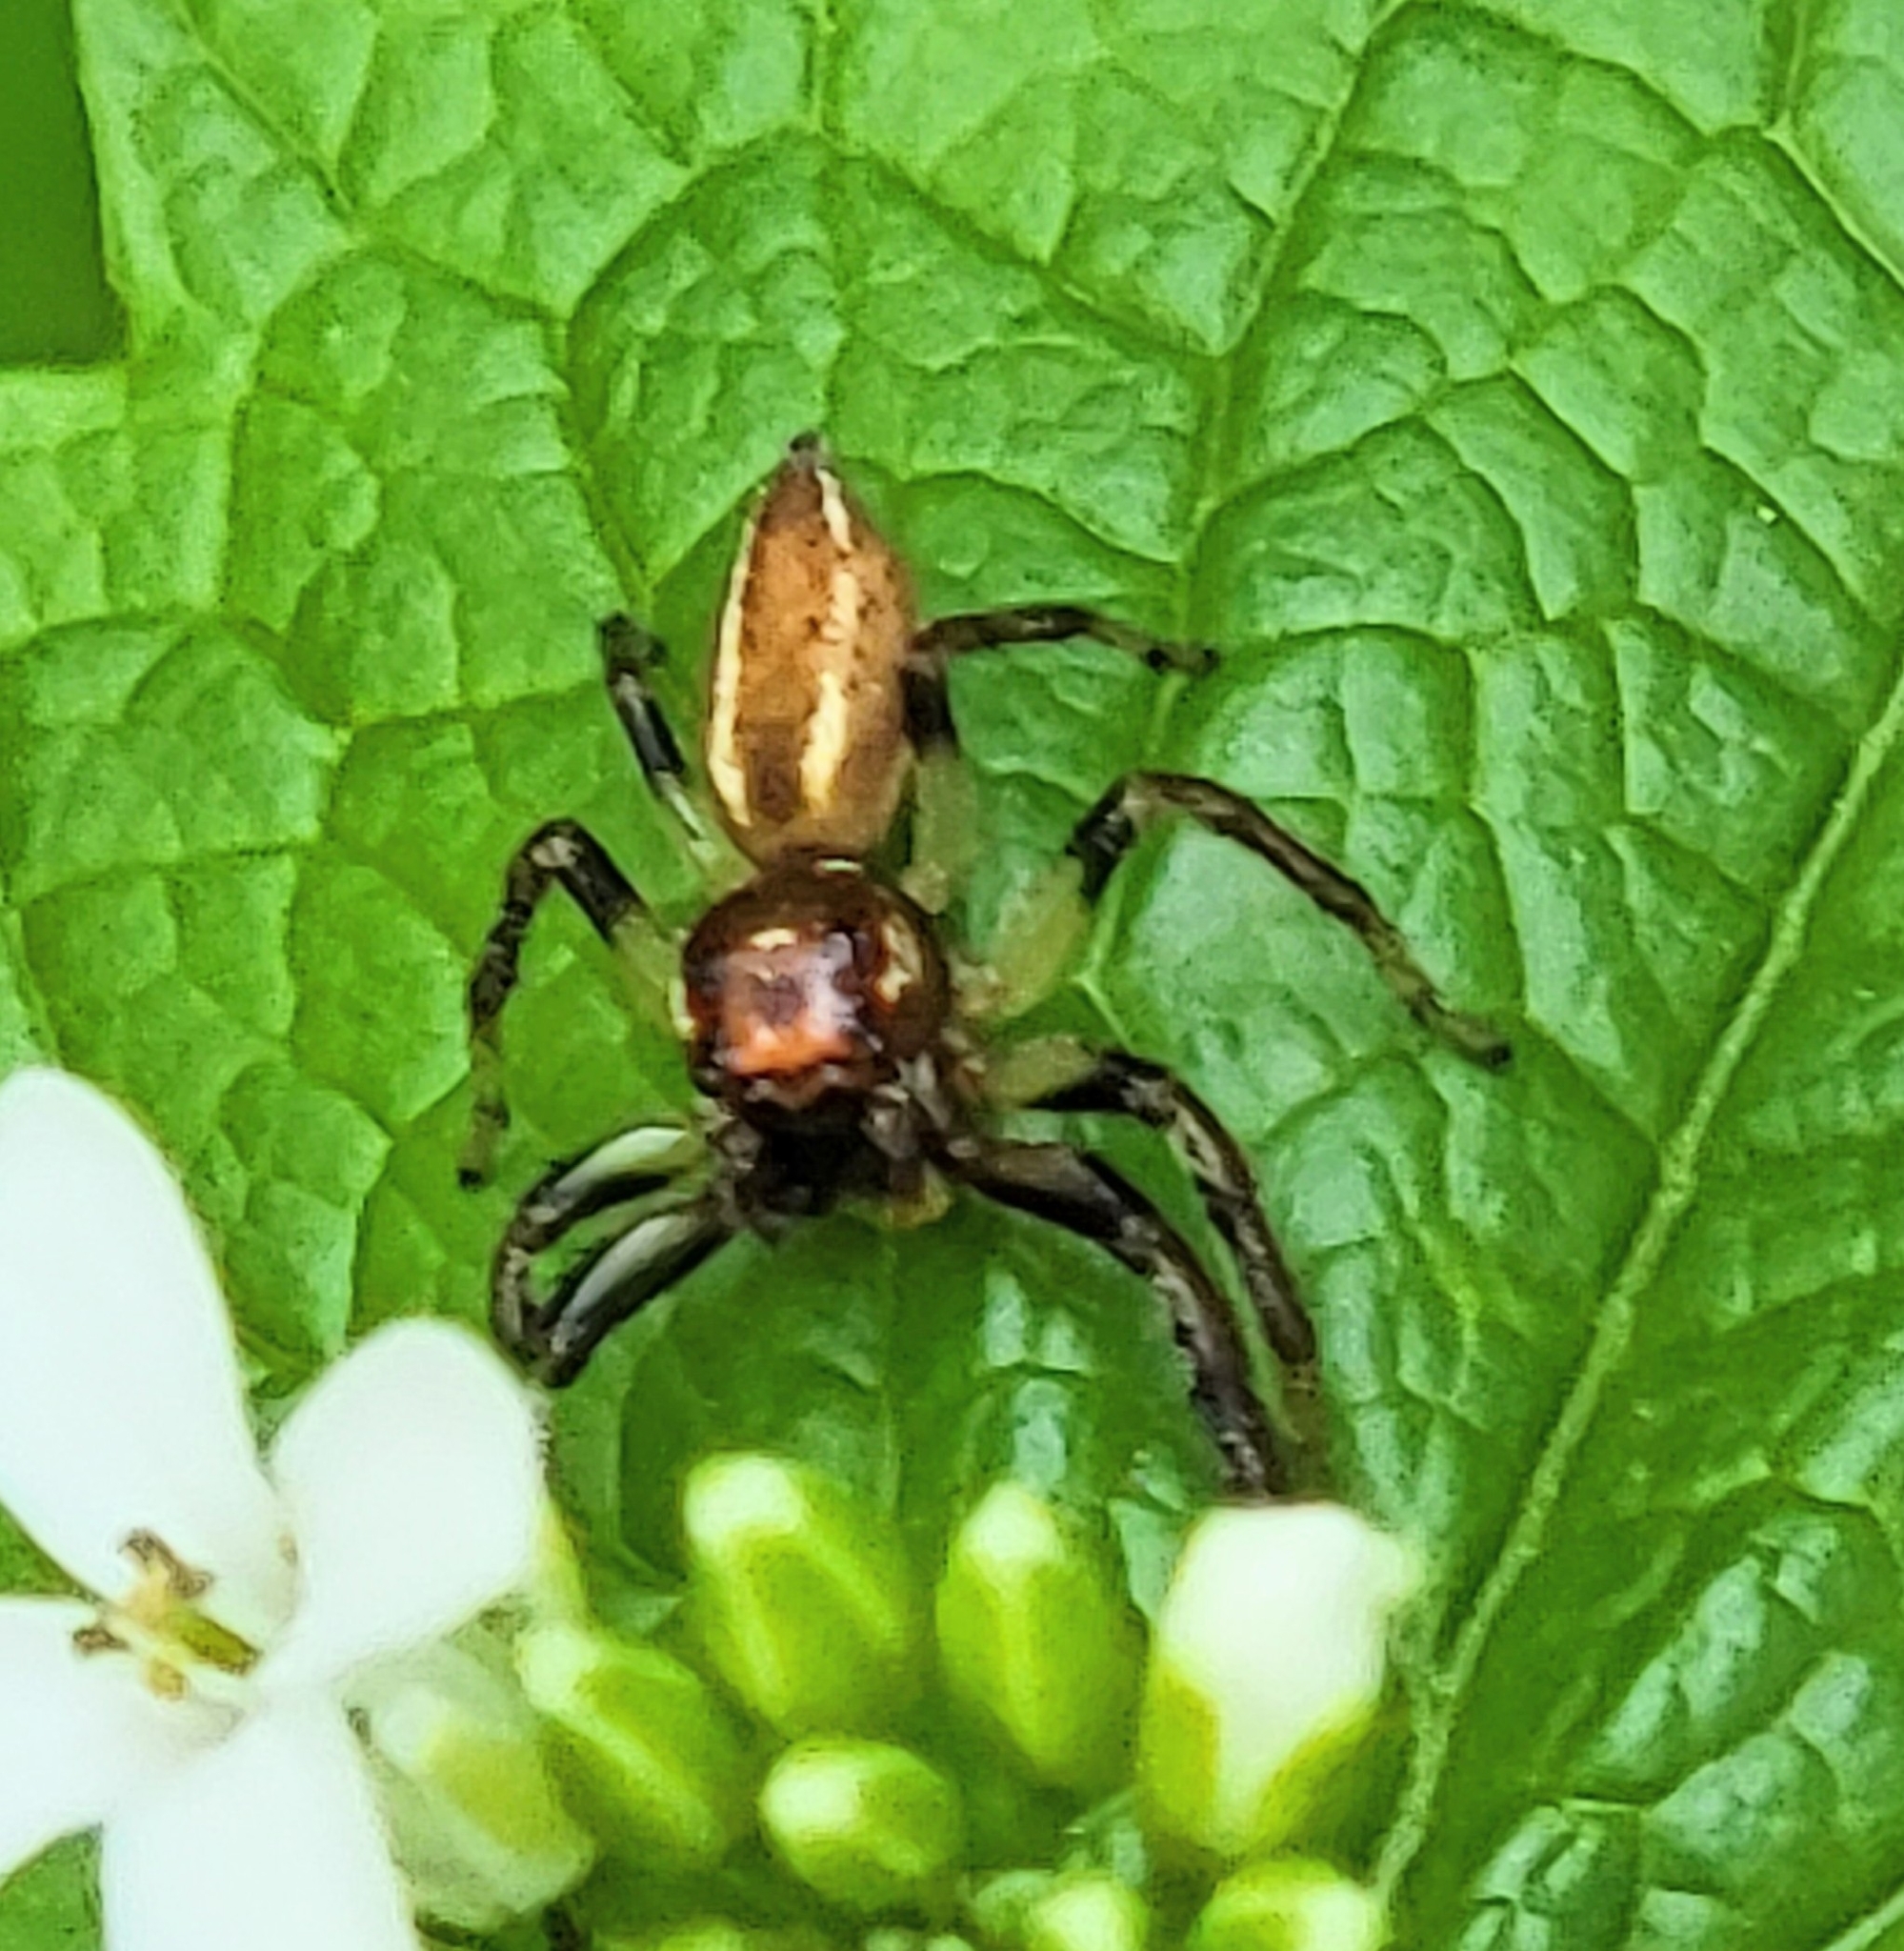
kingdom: Animalia
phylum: Arthropoda
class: Arachnida
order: Araneae
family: Salticidae
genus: Colonus
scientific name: Colonus sylvanus
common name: Jumping spiders
